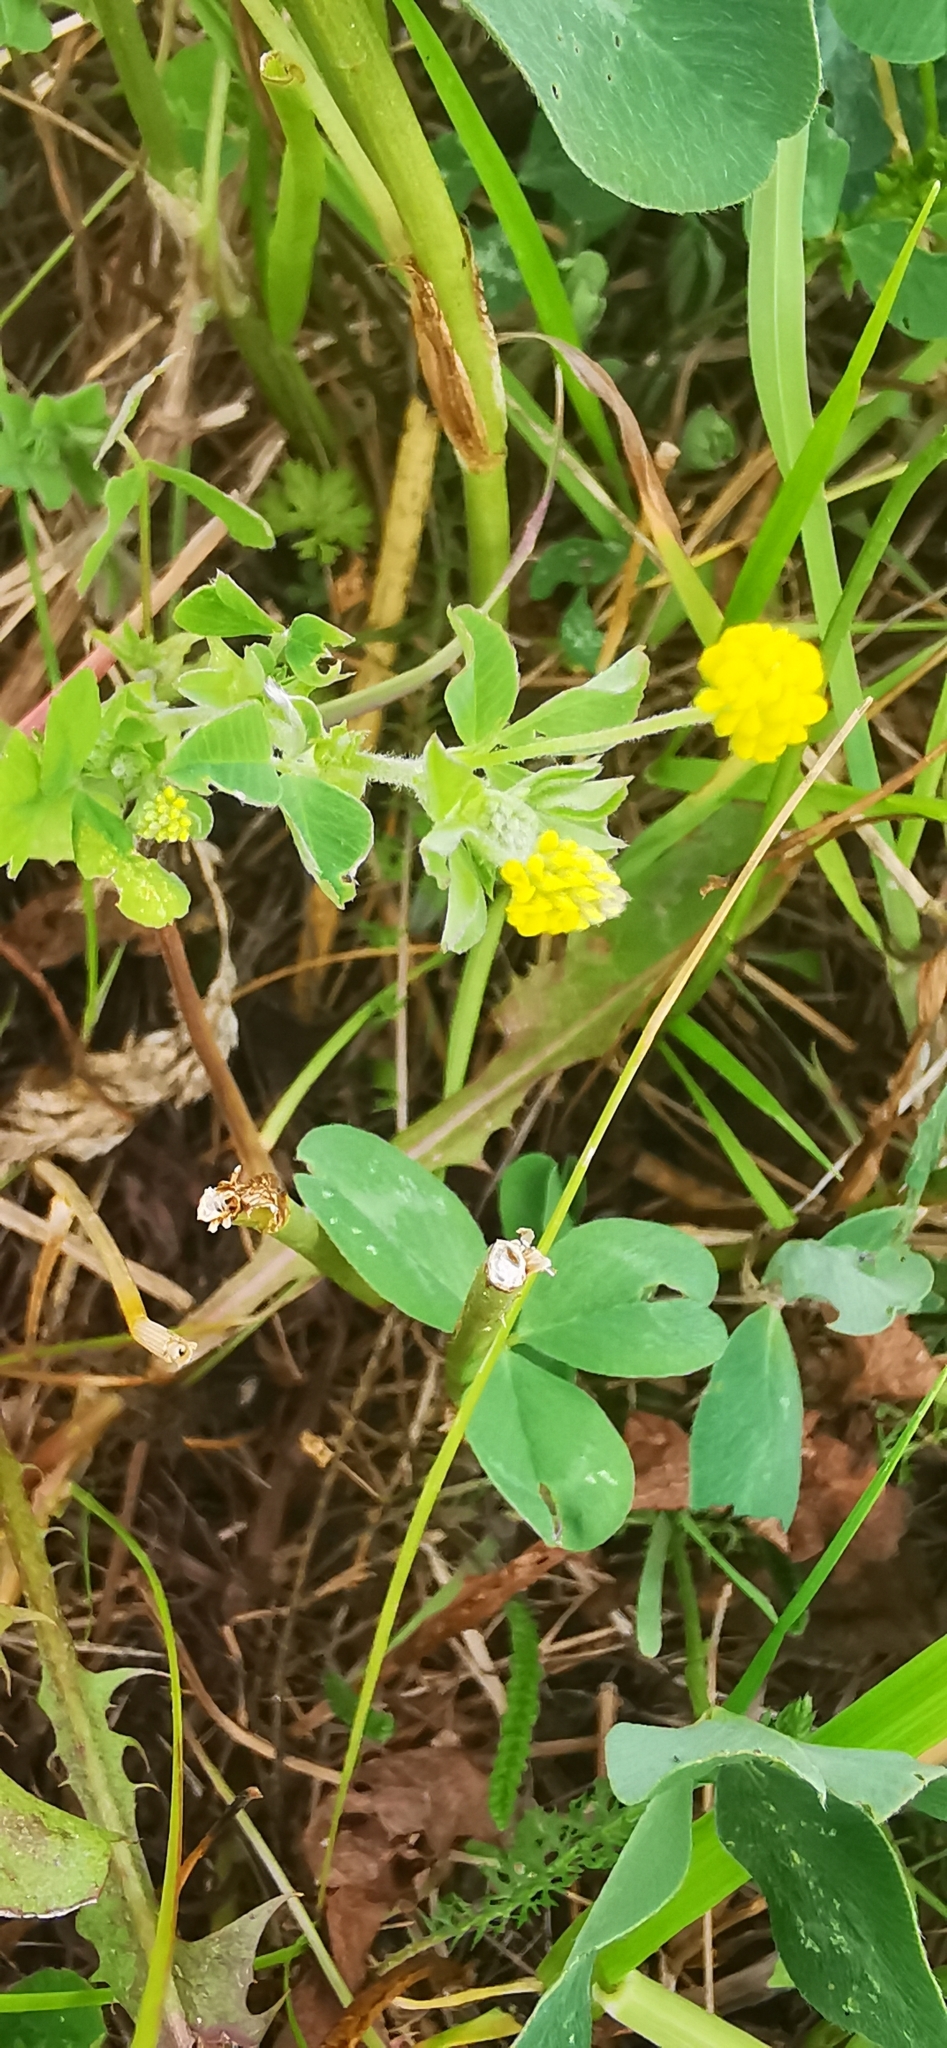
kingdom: Plantae
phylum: Tracheophyta
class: Magnoliopsida
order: Fabales
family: Fabaceae
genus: Medicago
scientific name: Medicago lupulina
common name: Black medick
